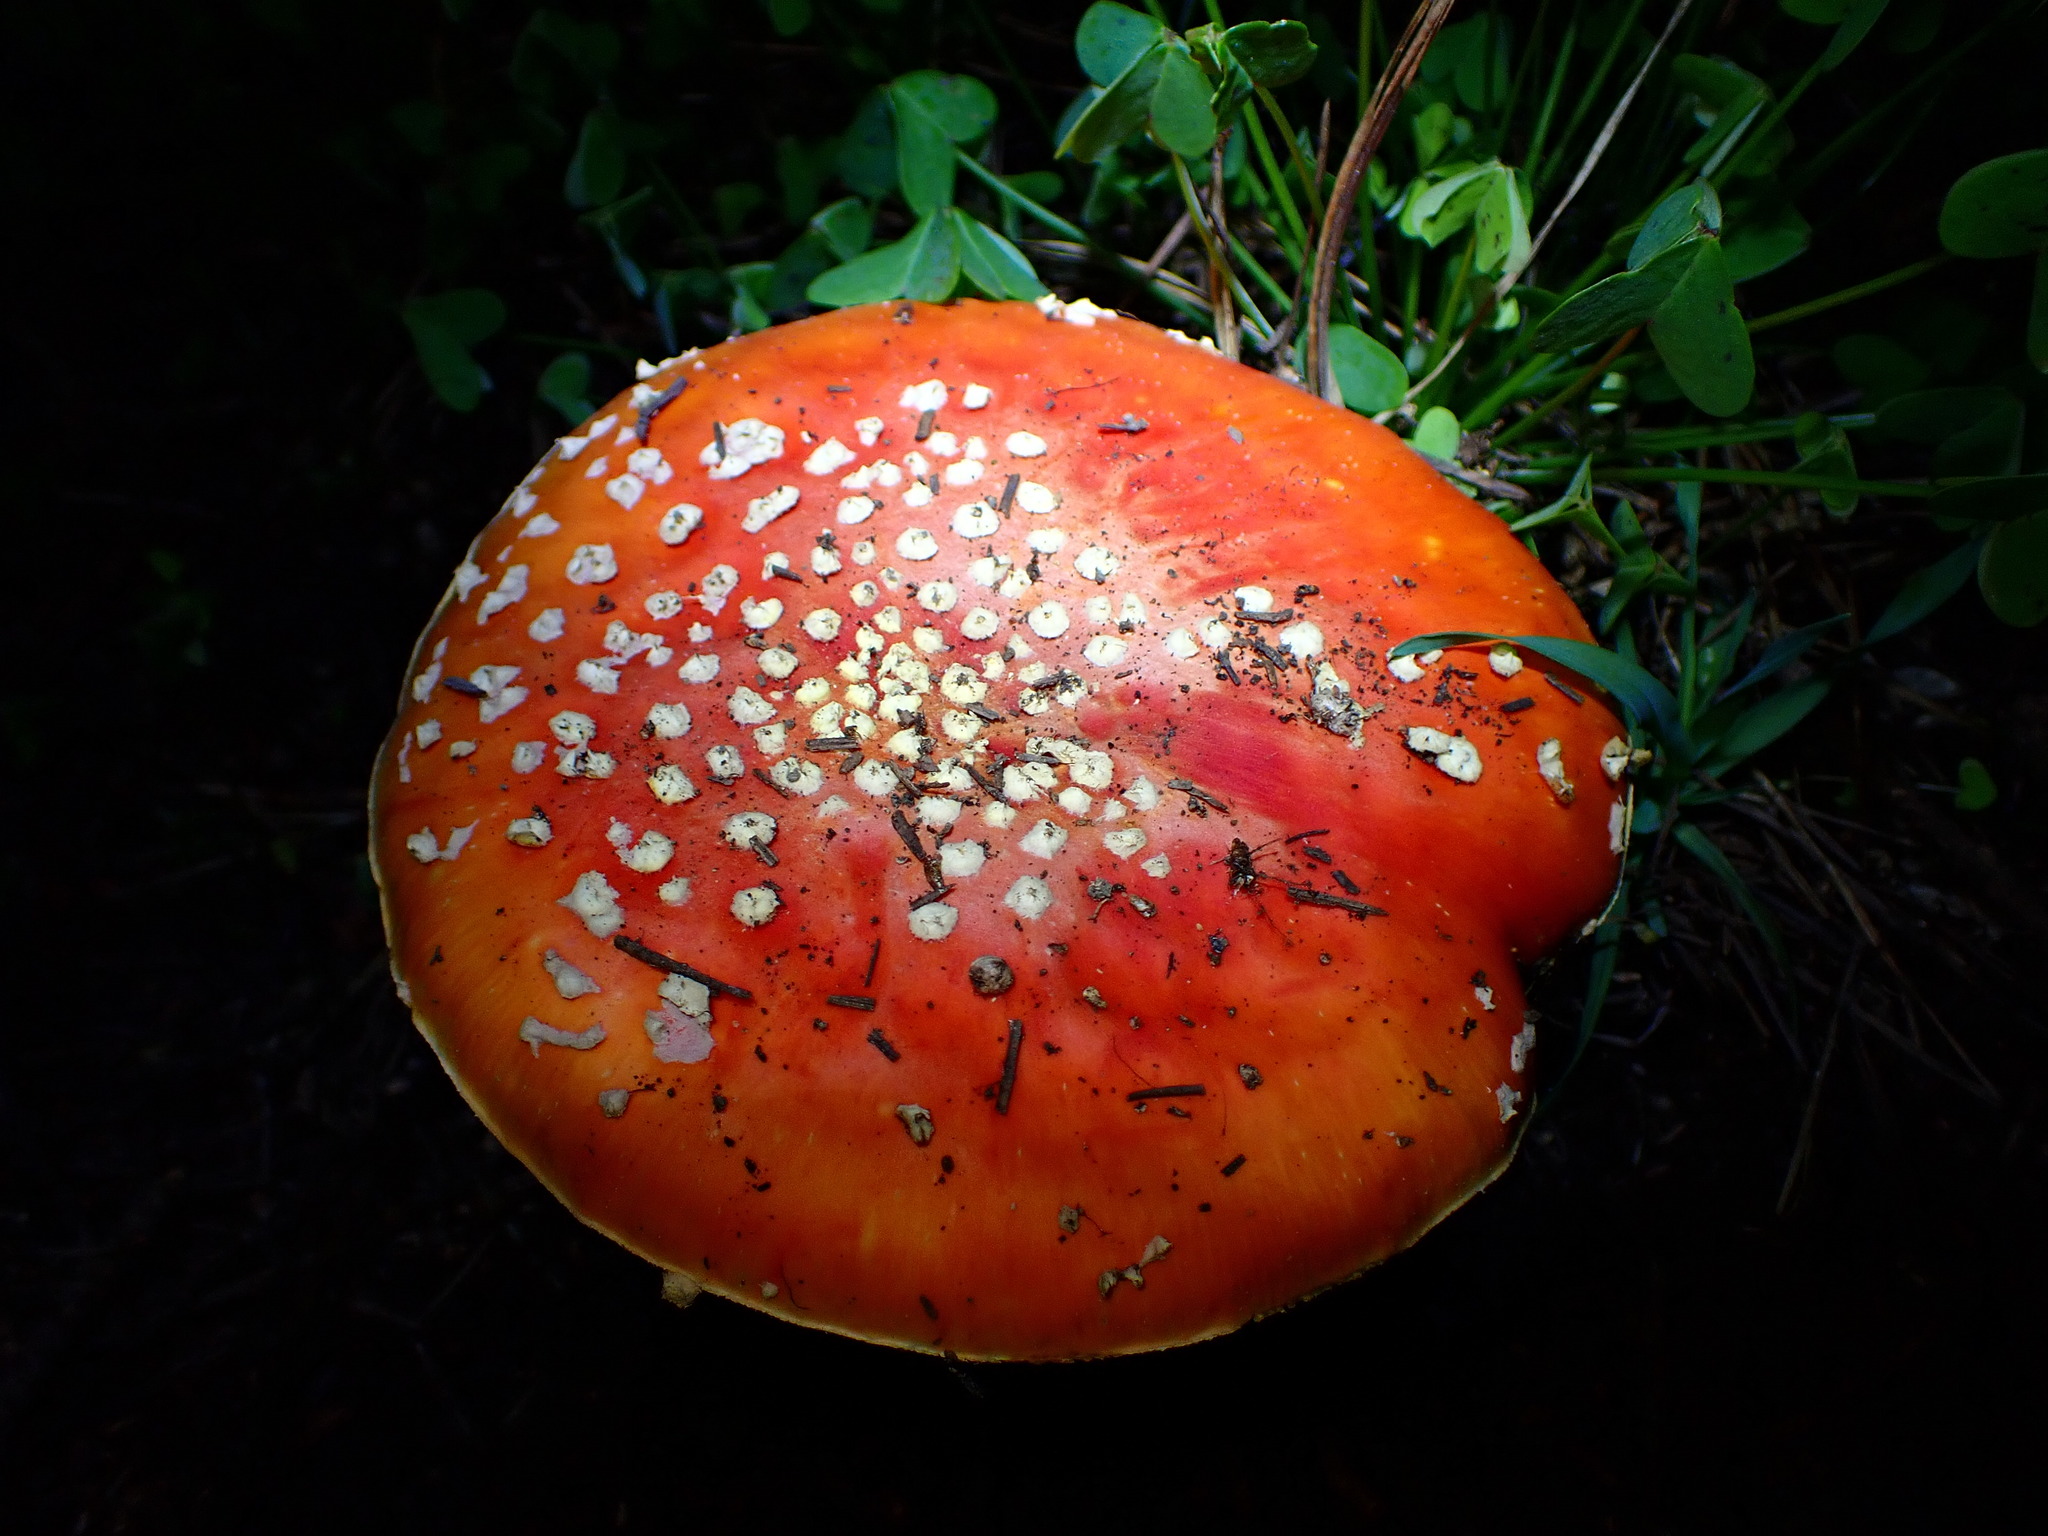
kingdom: Fungi
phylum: Basidiomycota
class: Agaricomycetes
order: Agaricales
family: Amanitaceae
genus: Amanita
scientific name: Amanita muscaria
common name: Fly agaric
